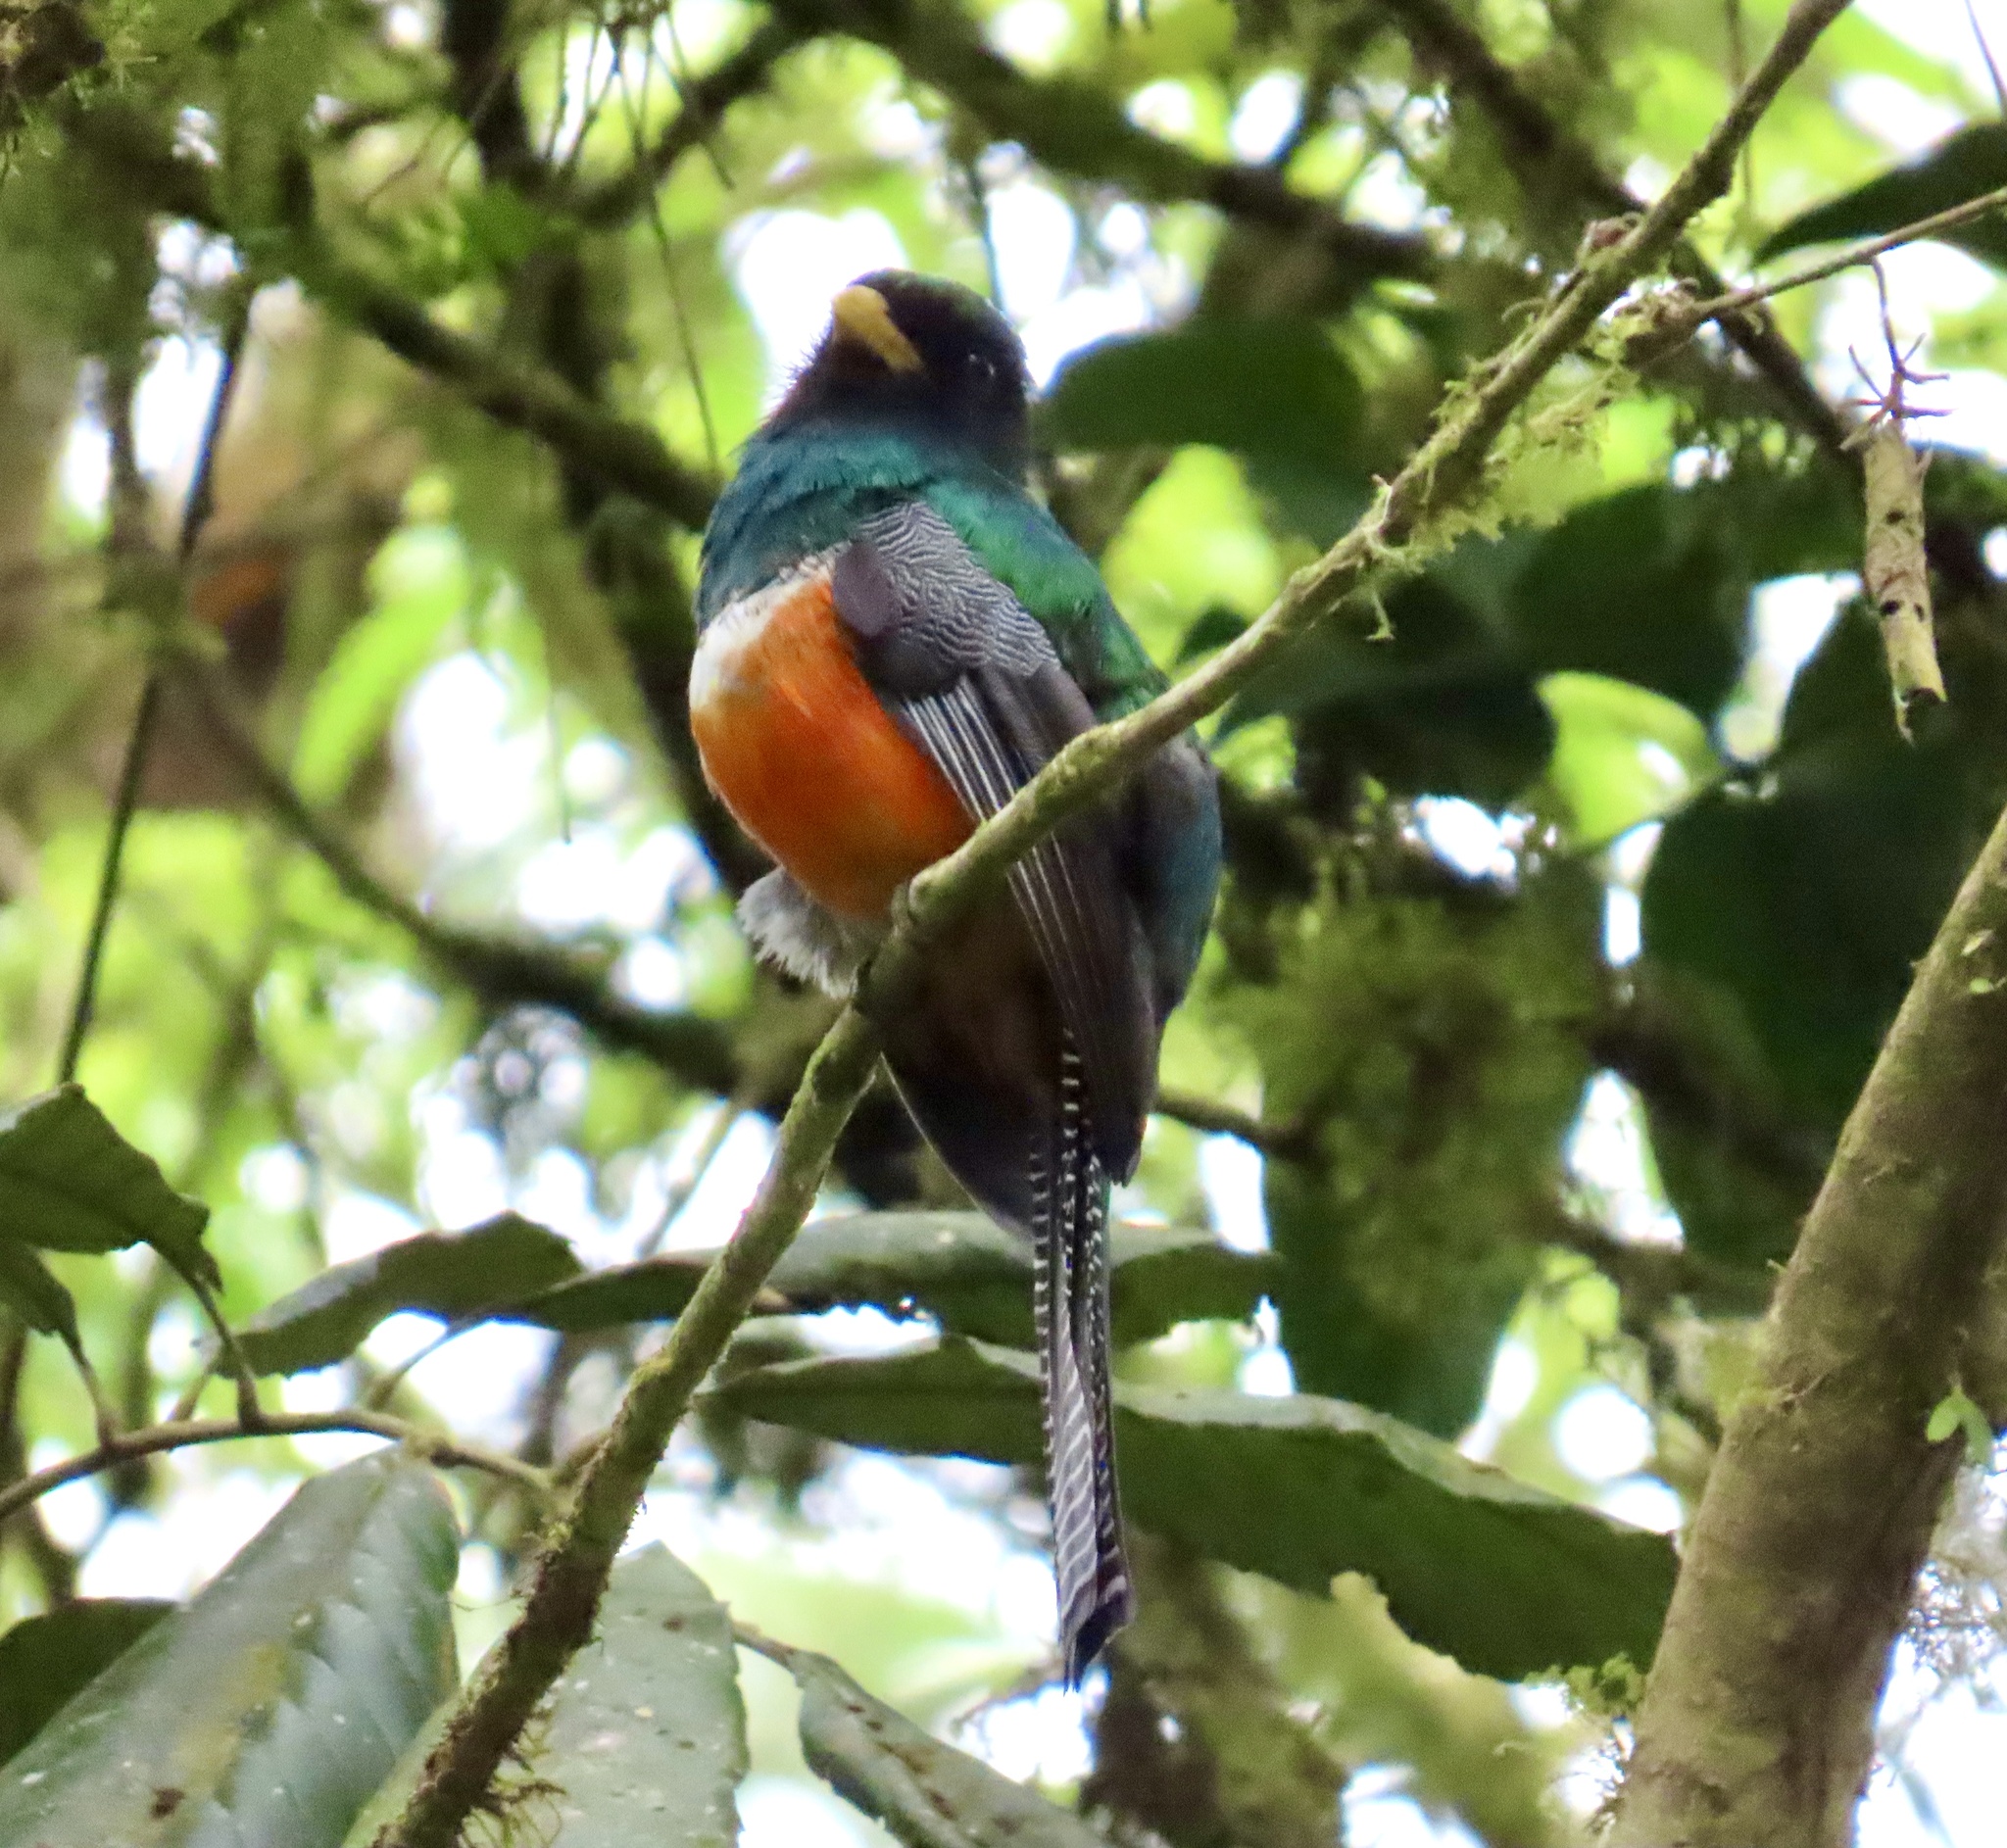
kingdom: Animalia
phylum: Chordata
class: Aves
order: Trogoniformes
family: Trogonidae
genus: Trogon
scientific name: Trogon collaris
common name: Collared trogon
